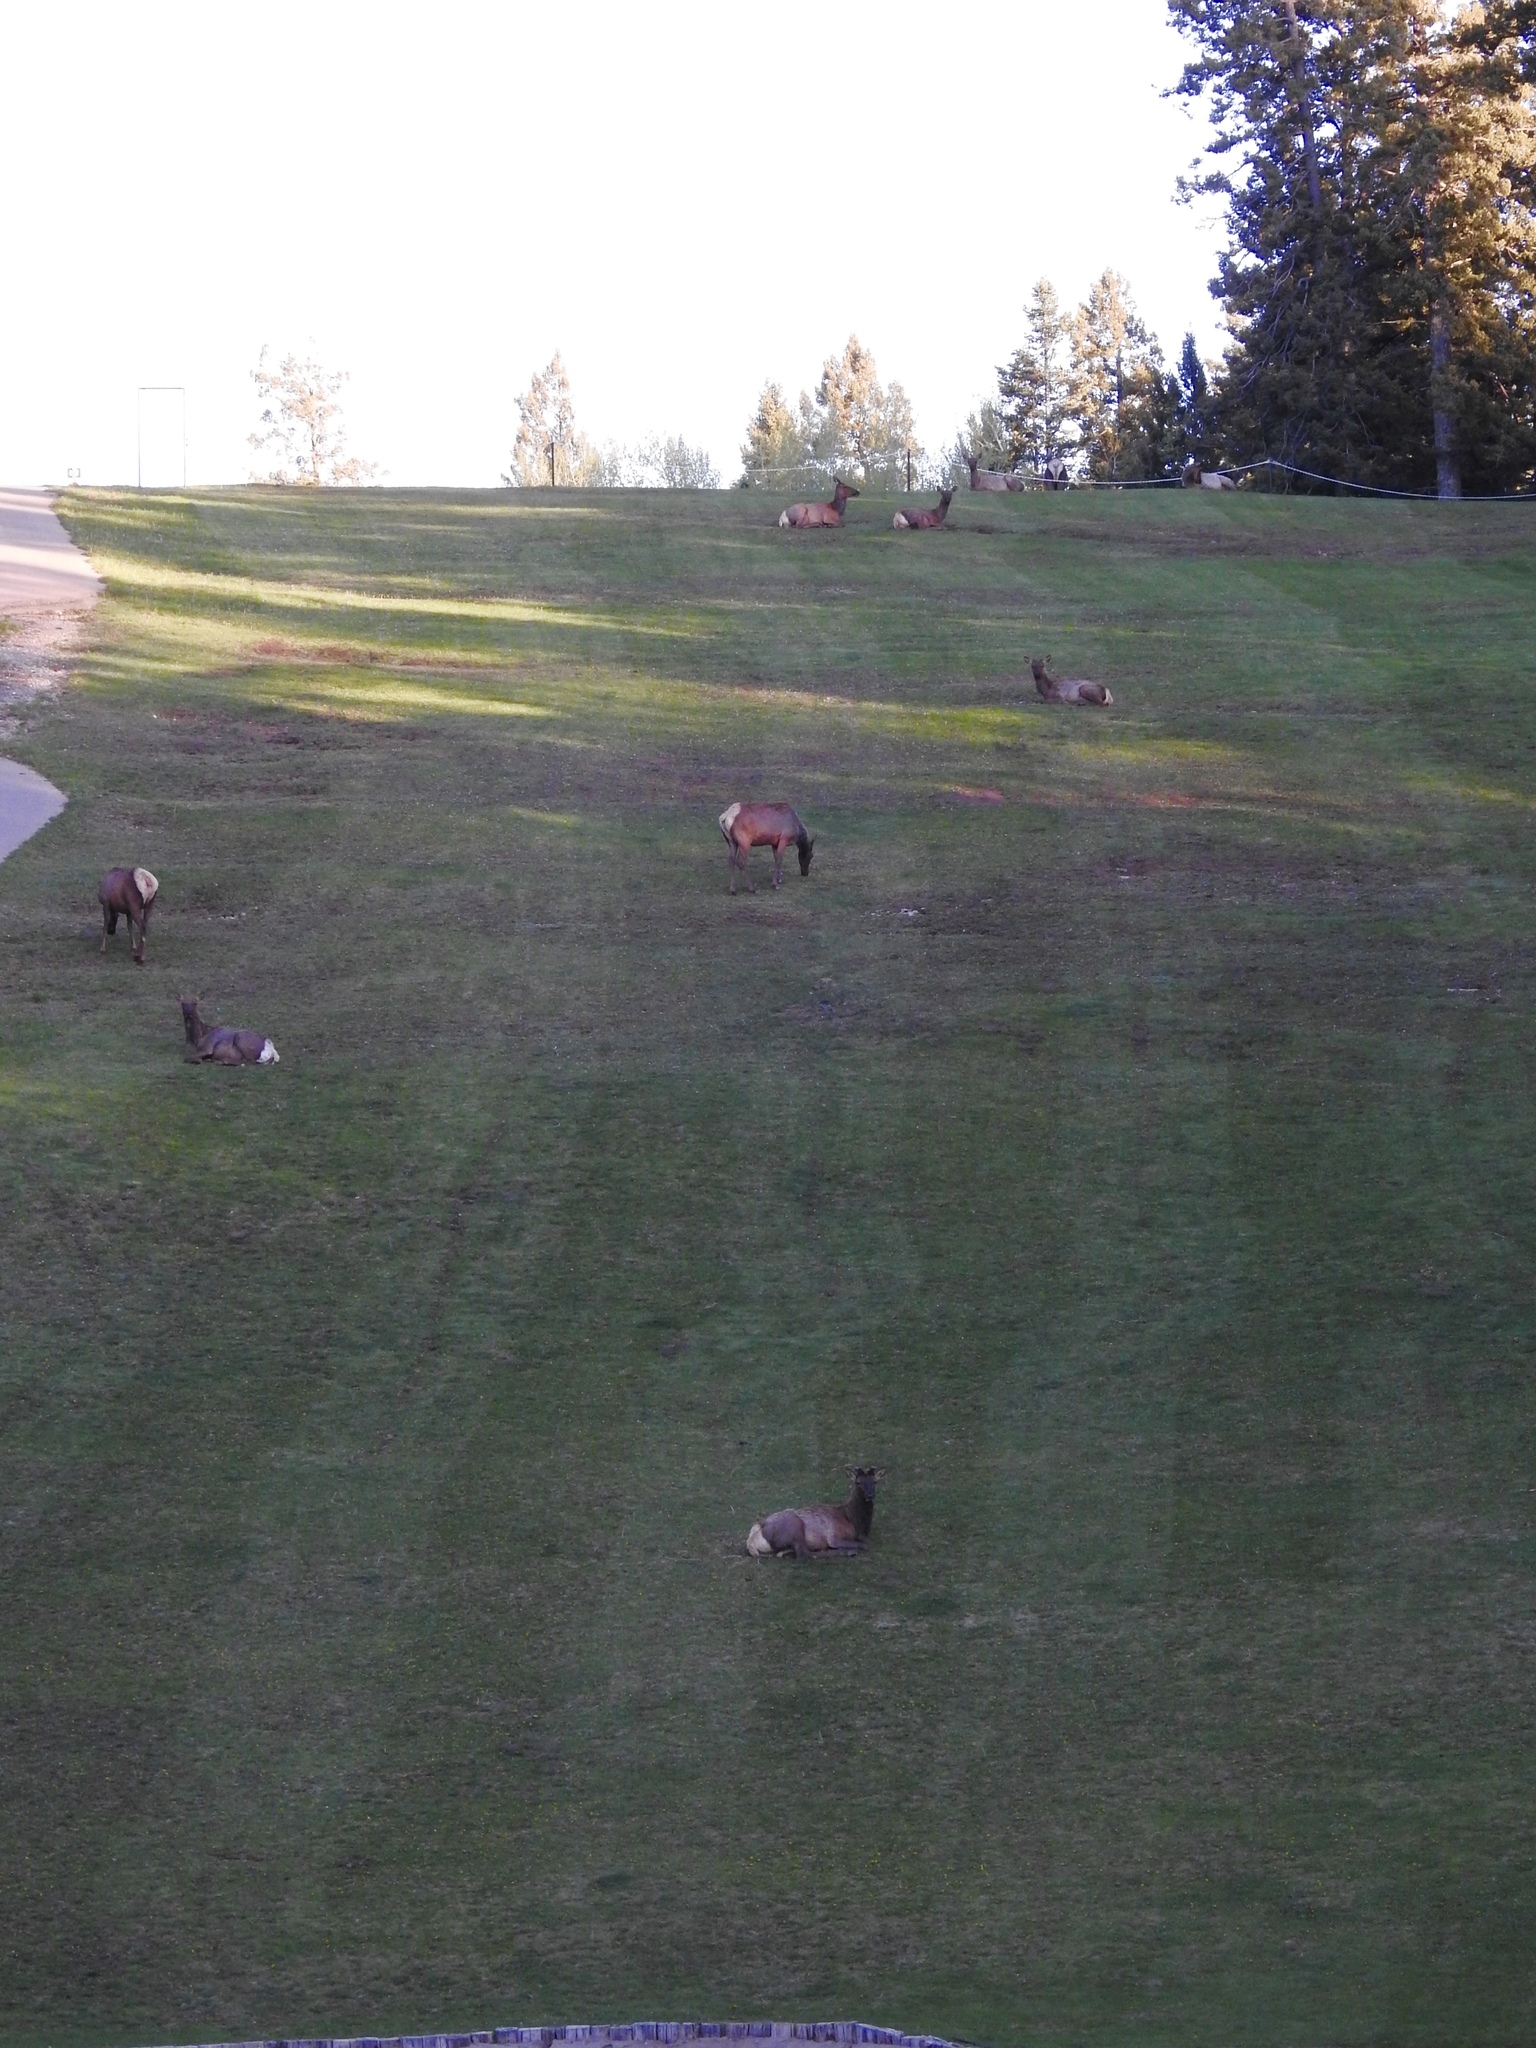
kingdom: Animalia
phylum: Chordata
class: Mammalia
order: Artiodactyla
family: Cervidae
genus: Cervus
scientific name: Cervus elaphus
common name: Red deer
